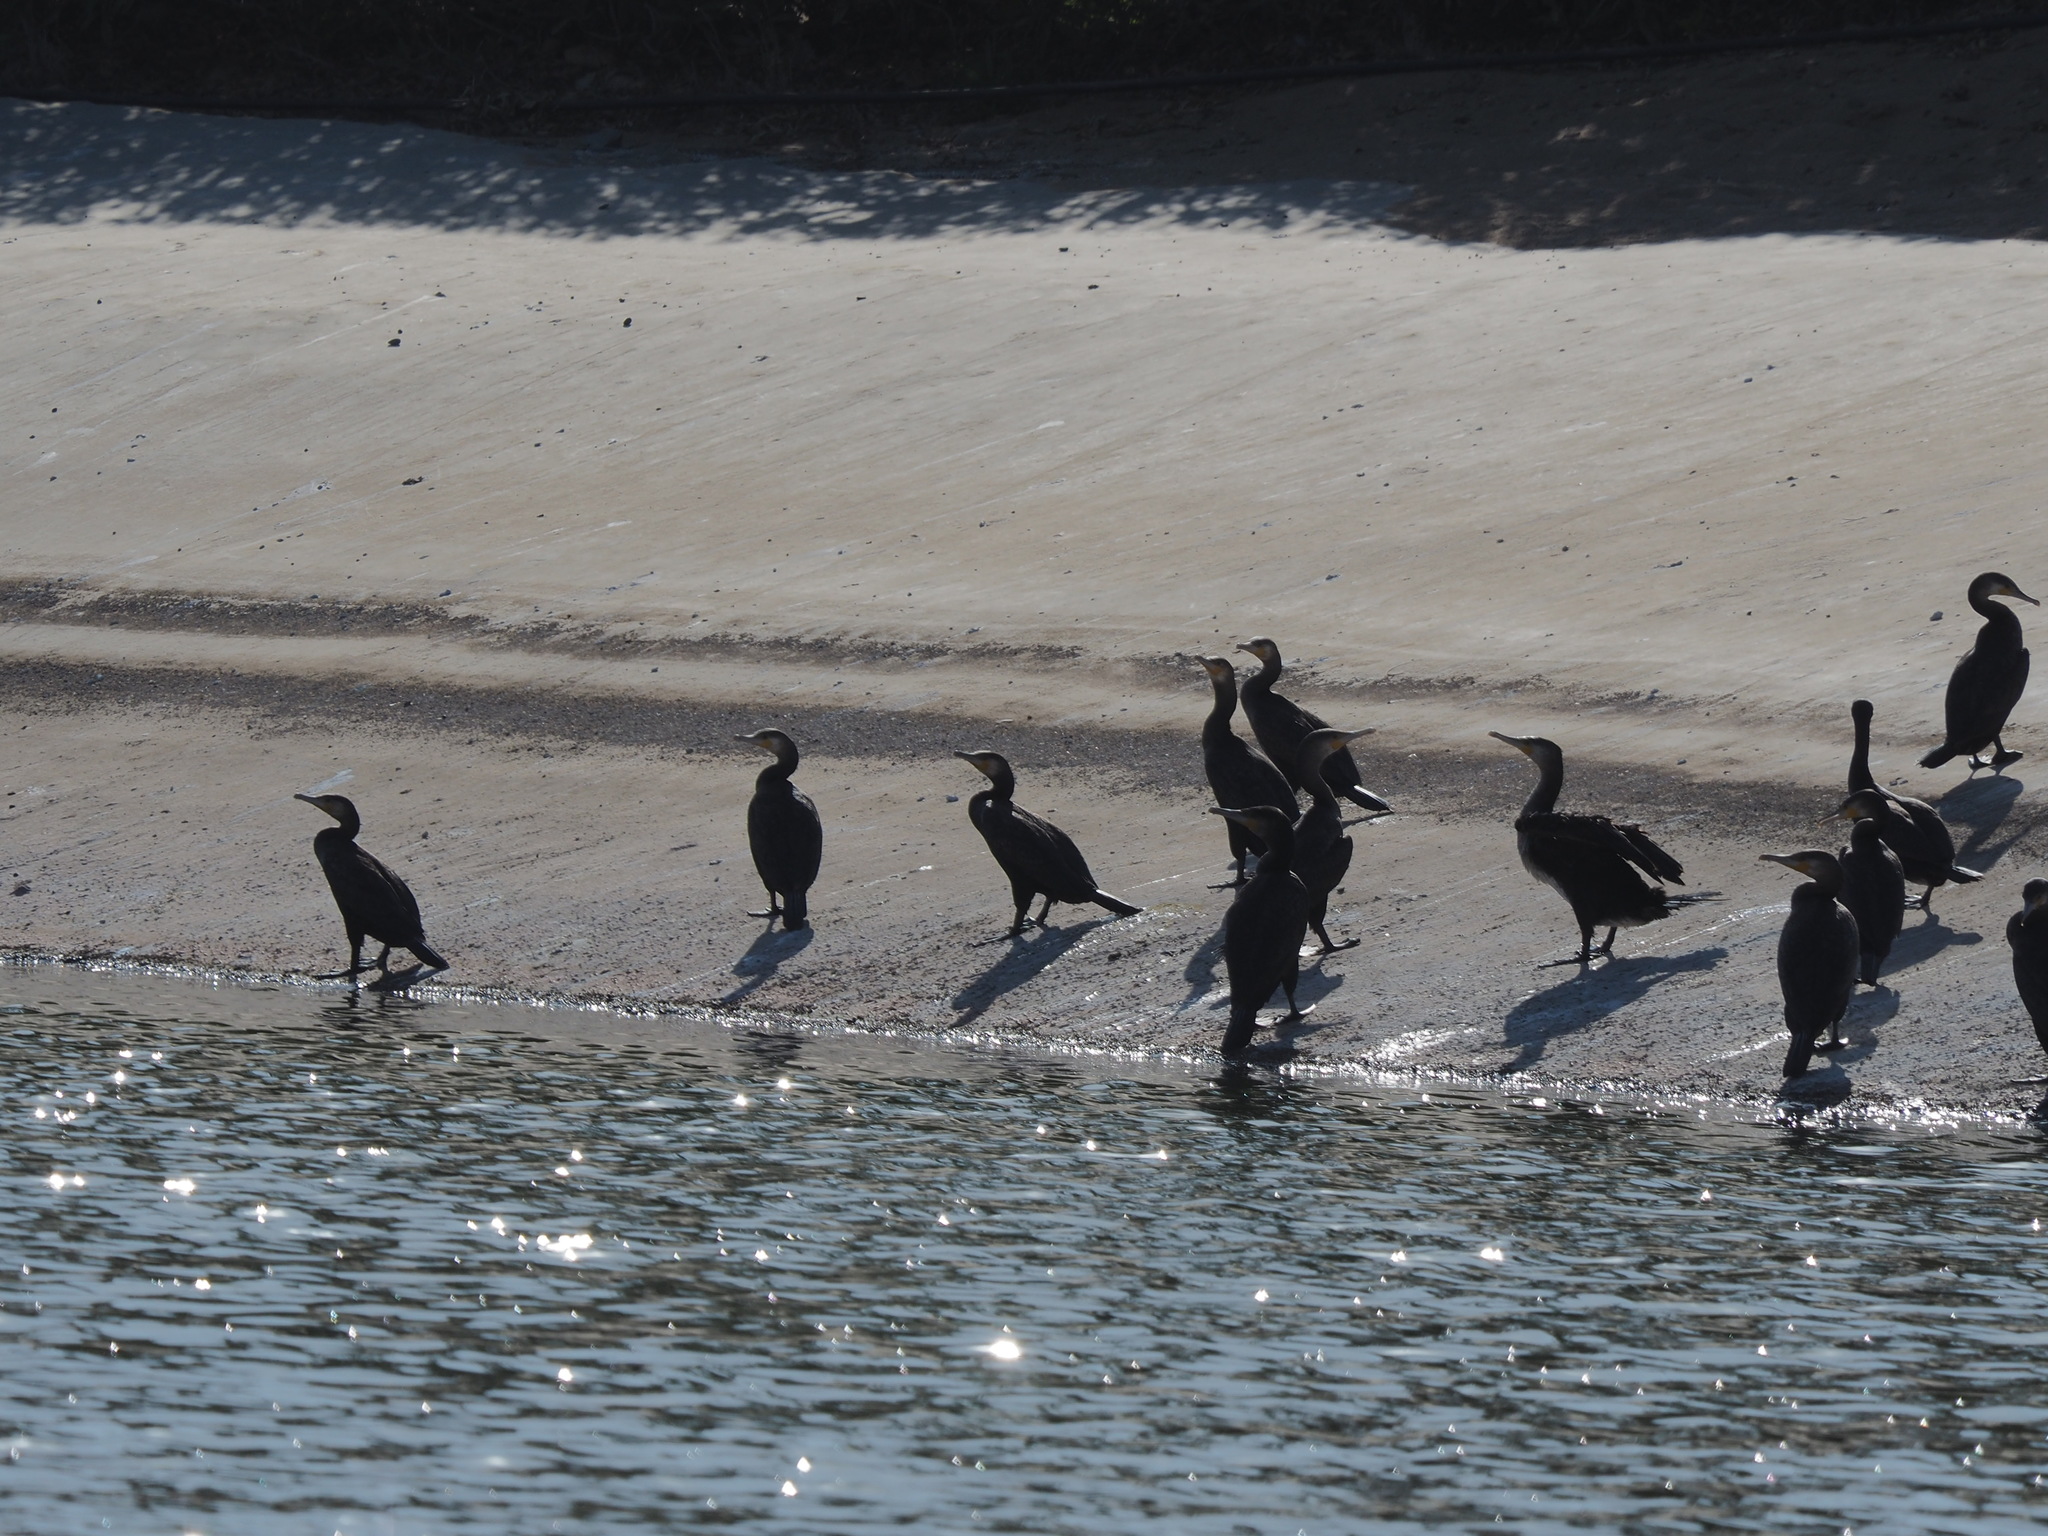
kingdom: Animalia
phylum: Chordata
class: Aves
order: Suliformes
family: Phalacrocoracidae
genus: Phalacrocorax
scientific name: Phalacrocorax carbo
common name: Great cormorant
